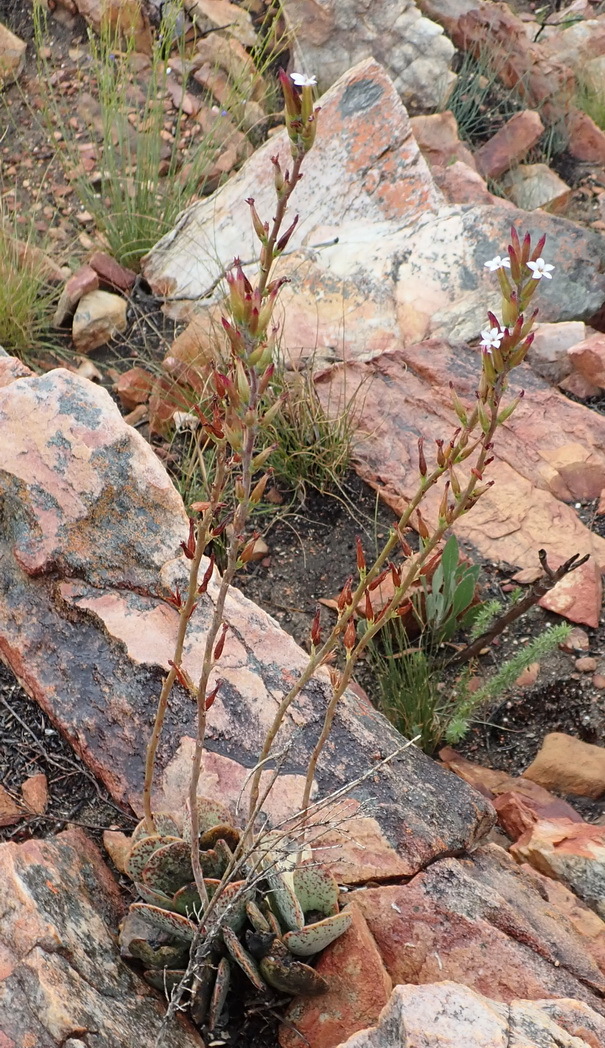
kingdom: Plantae
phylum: Tracheophyta
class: Magnoliopsida
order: Saxifragales
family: Crassulaceae
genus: Adromischus
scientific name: Adromischus inamoenus
